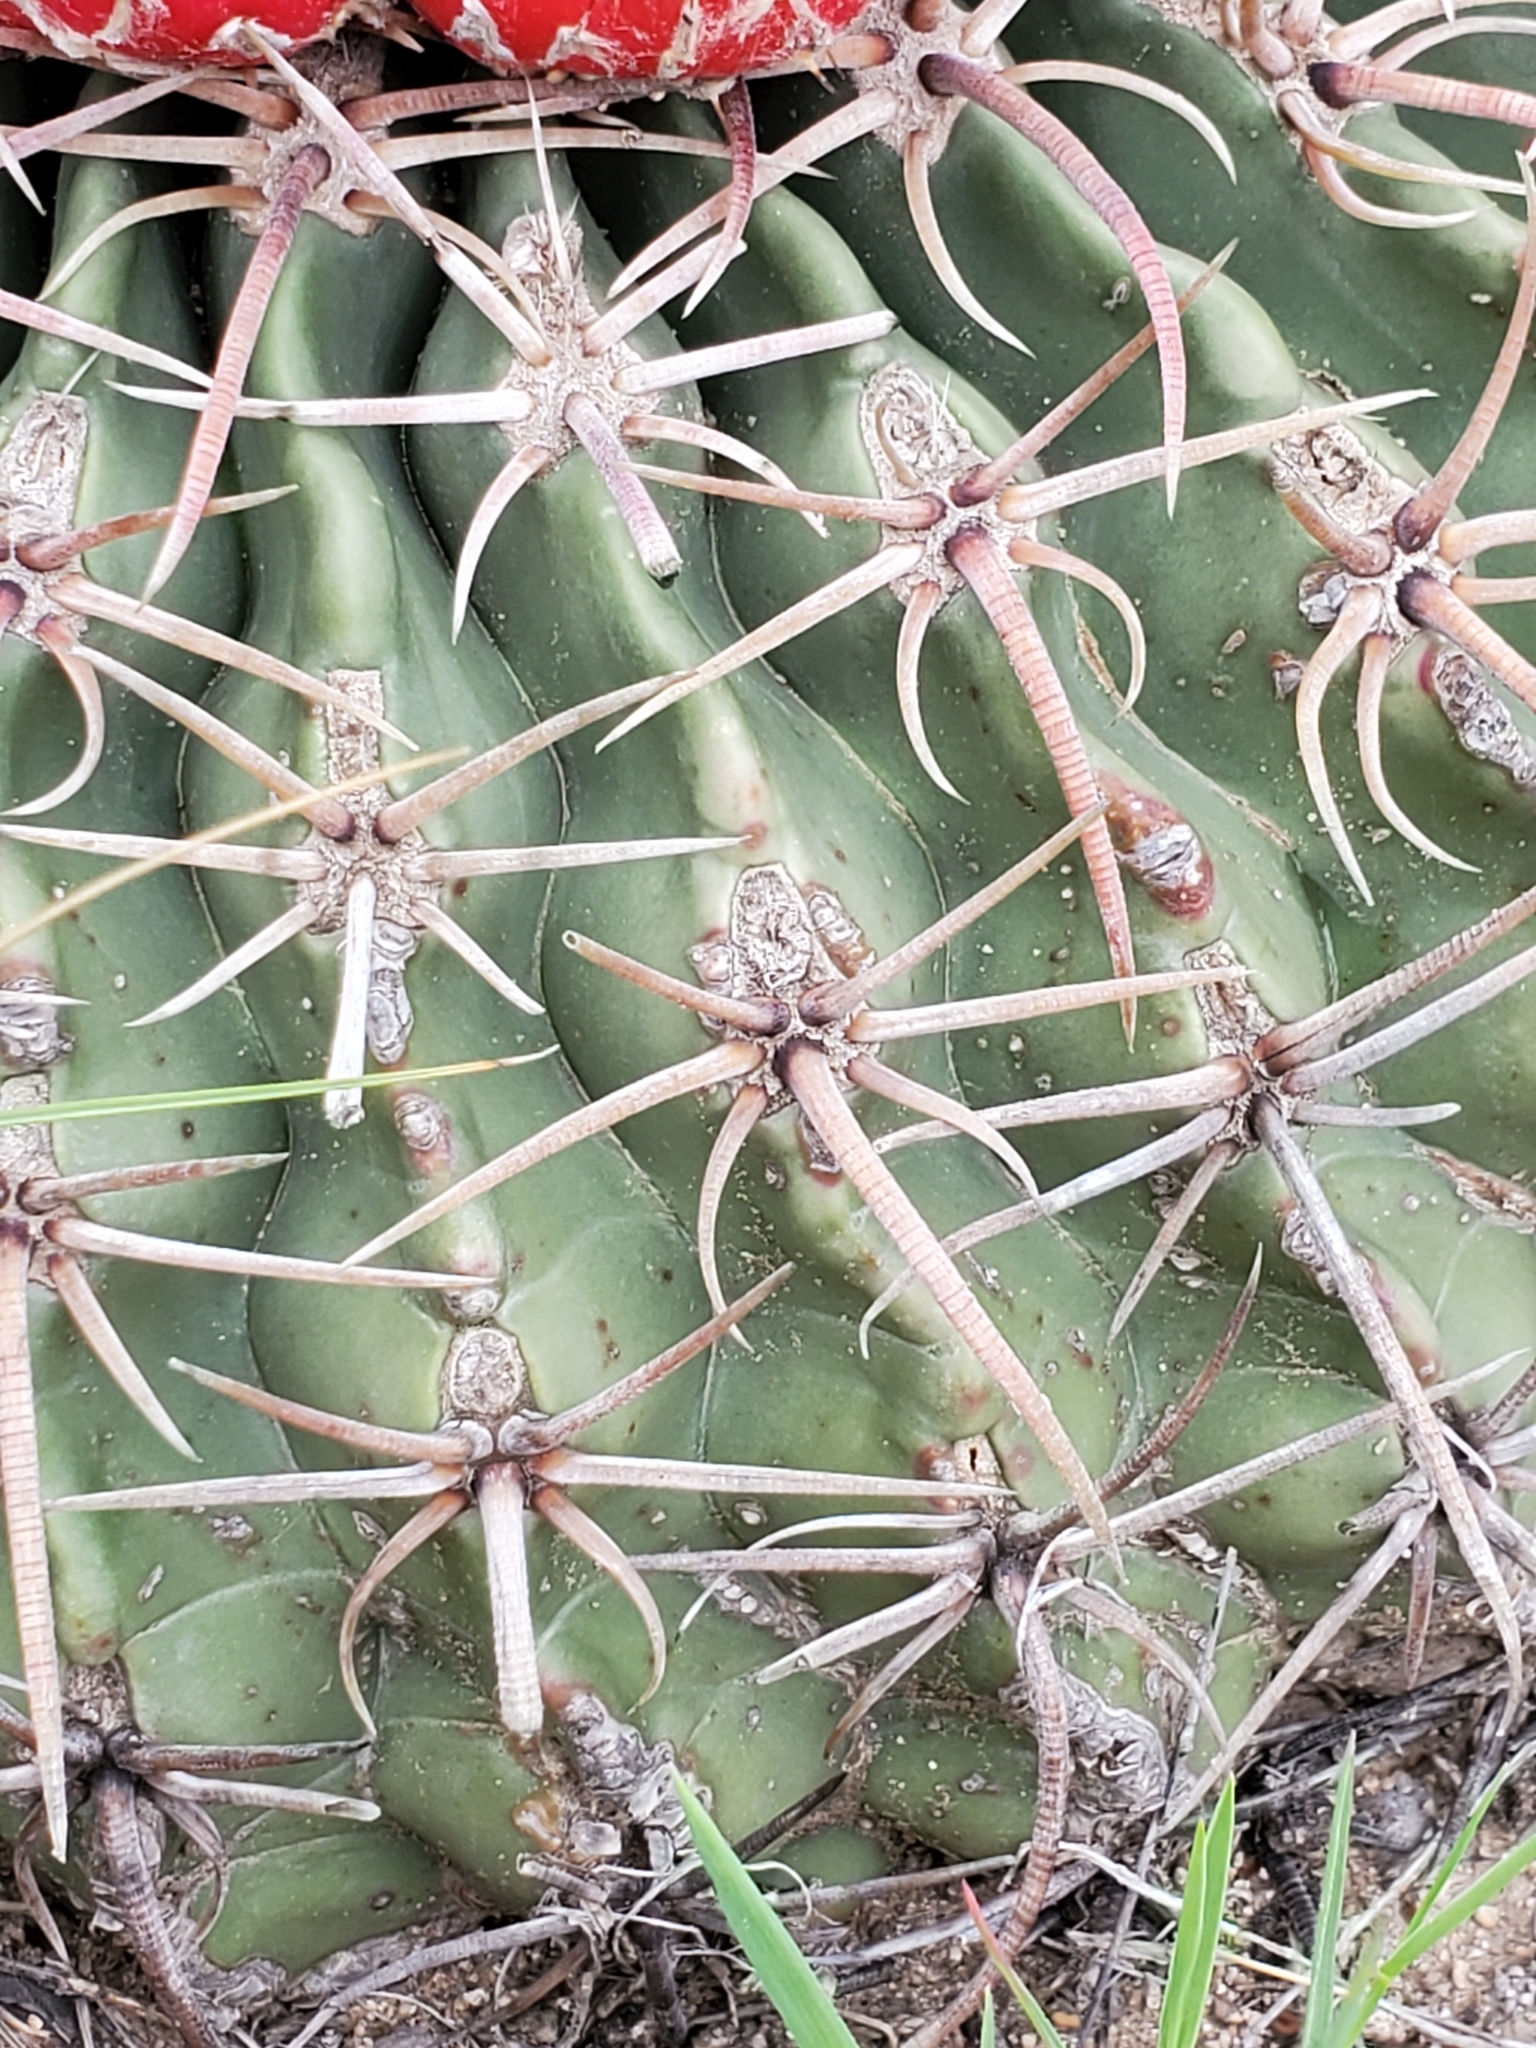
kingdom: Plantae
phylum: Tracheophyta
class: Magnoliopsida
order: Caryophyllales
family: Cactaceae
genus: Echinocactus
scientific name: Echinocactus texensis
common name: Devil's pincushion
